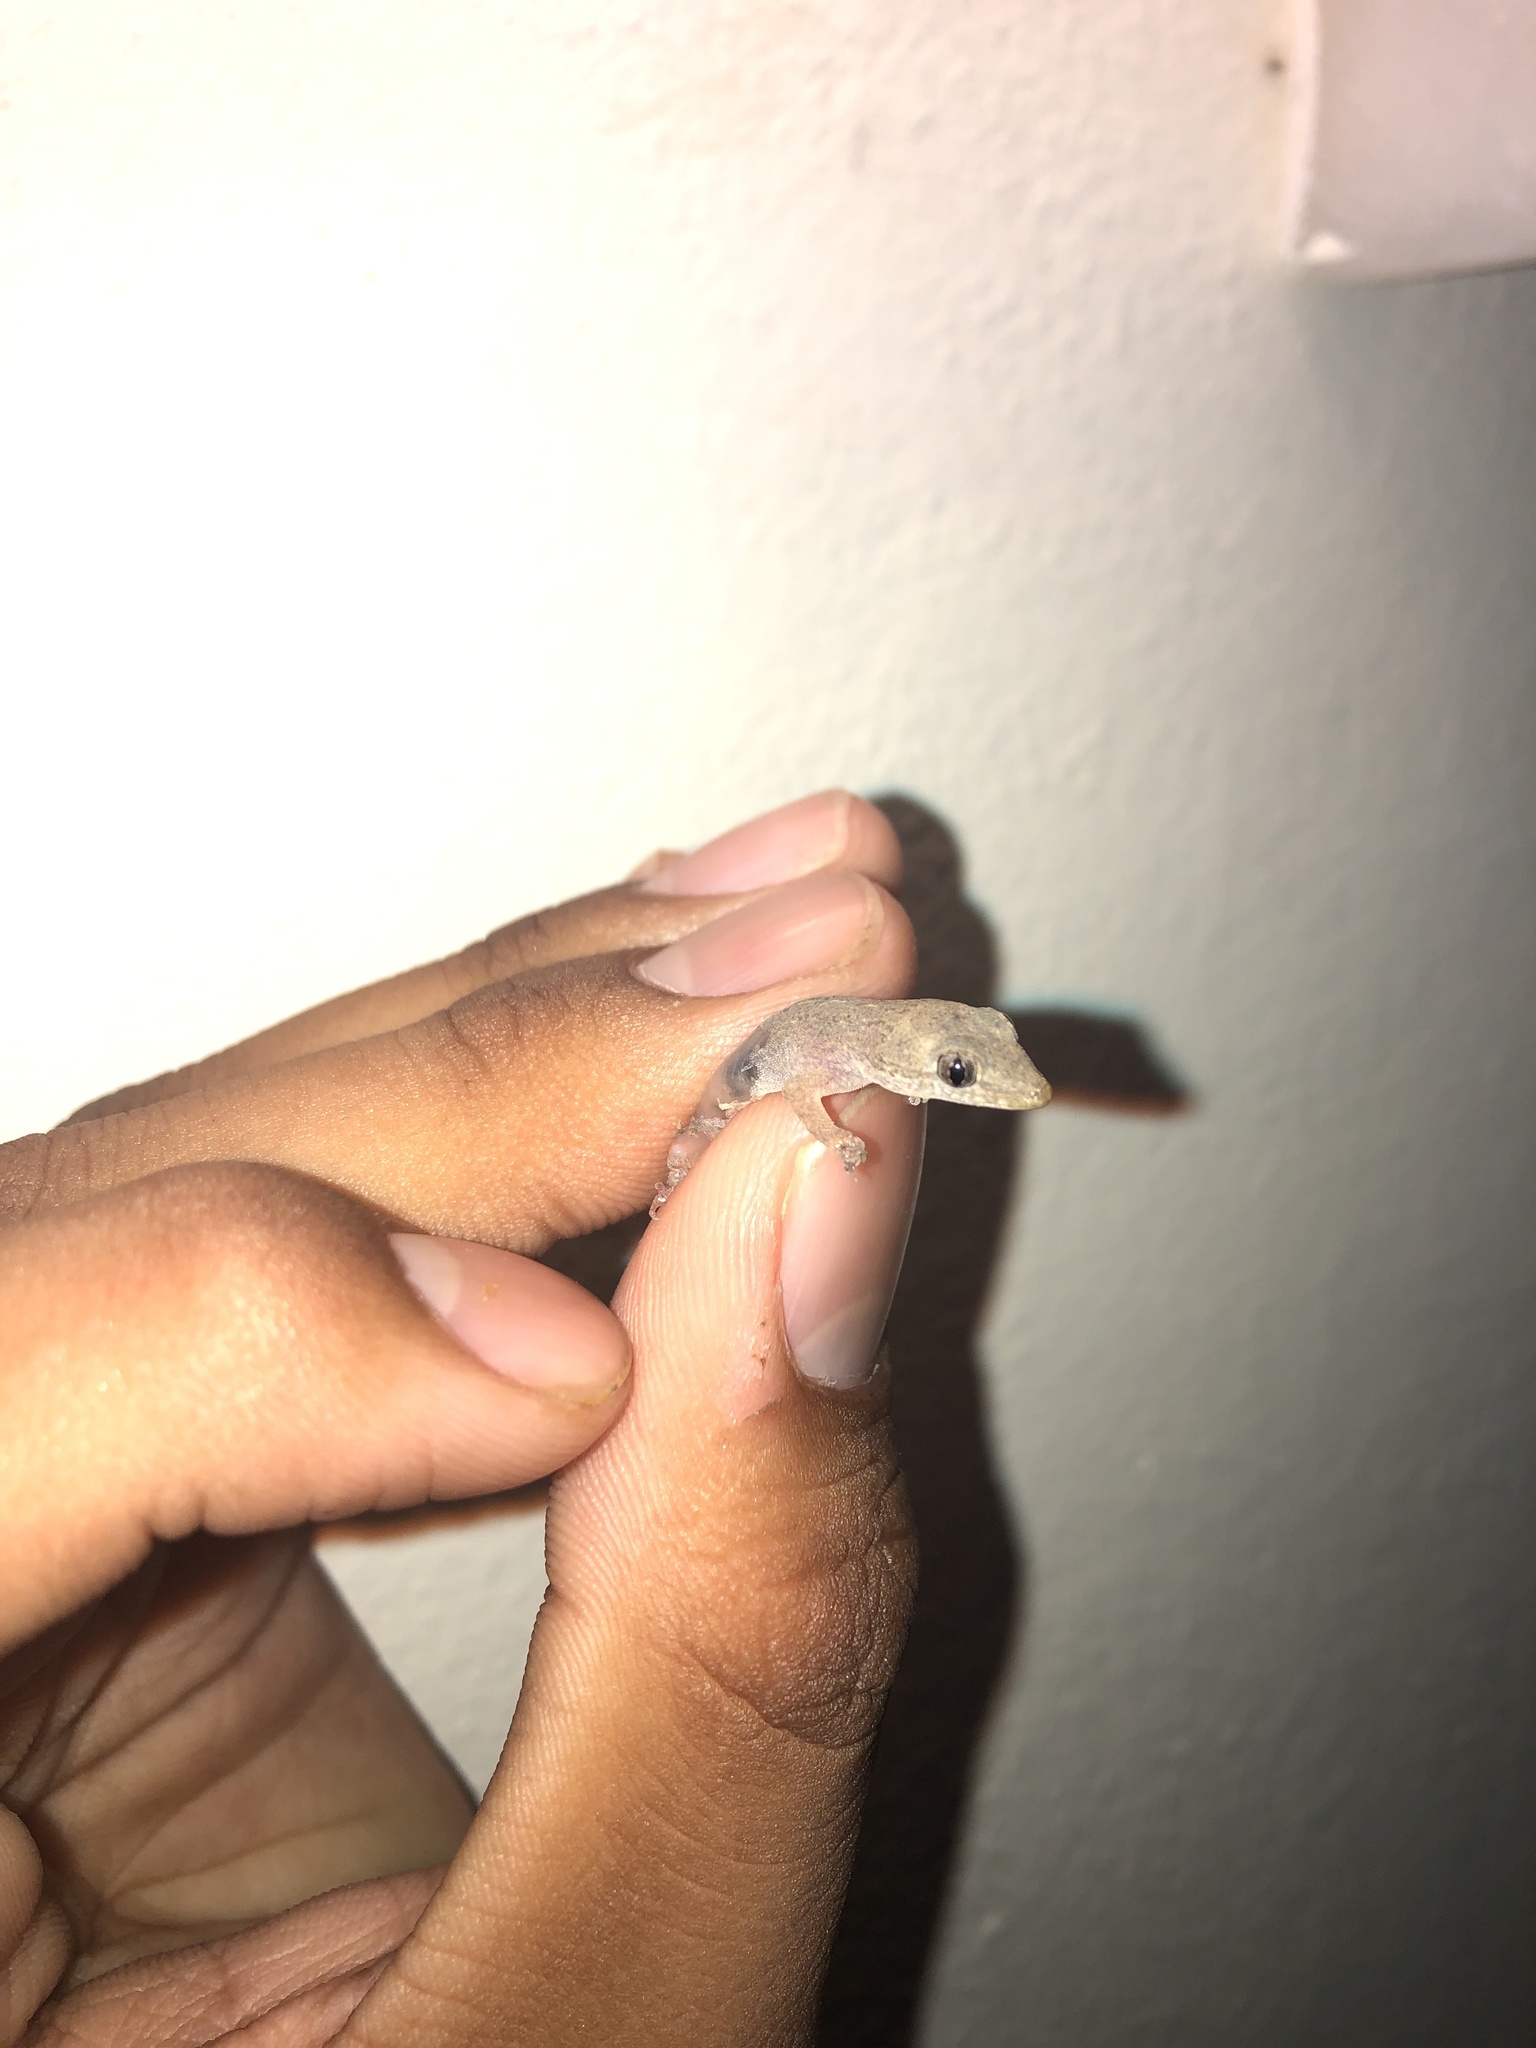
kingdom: Animalia
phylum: Chordata
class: Squamata
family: Gekkonidae
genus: Hemidactylus
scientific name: Hemidactylus frenatus
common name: Common house gecko
